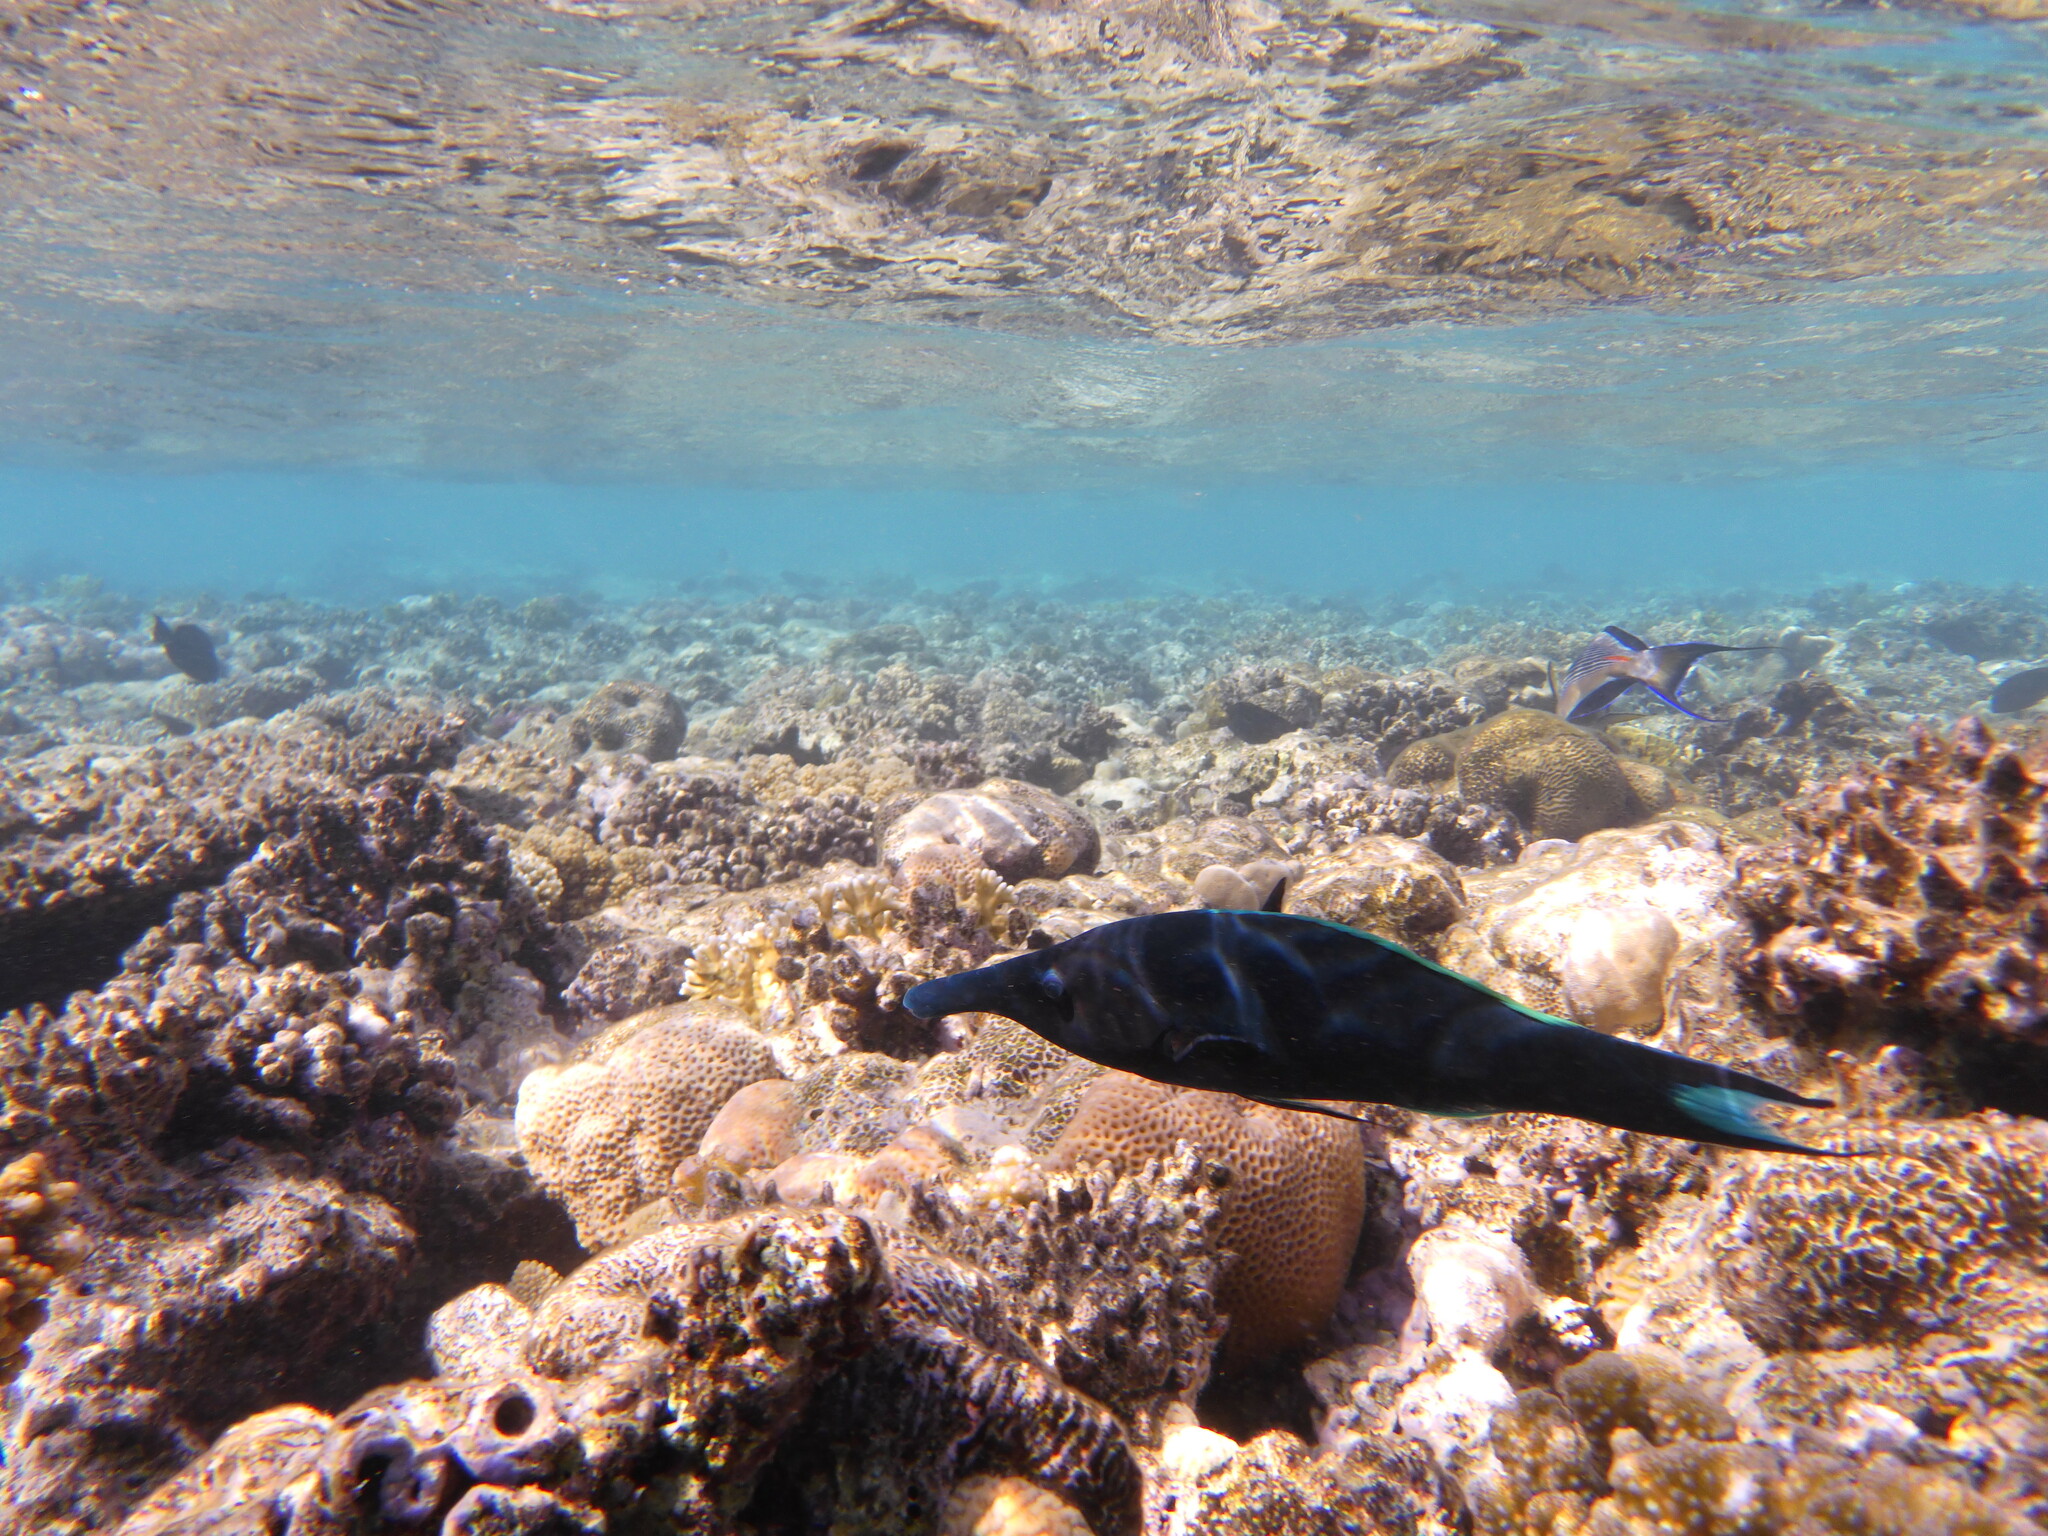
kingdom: Animalia
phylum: Chordata
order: Perciformes
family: Labridae
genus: Gomphosus
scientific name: Gomphosus klunzingeri
